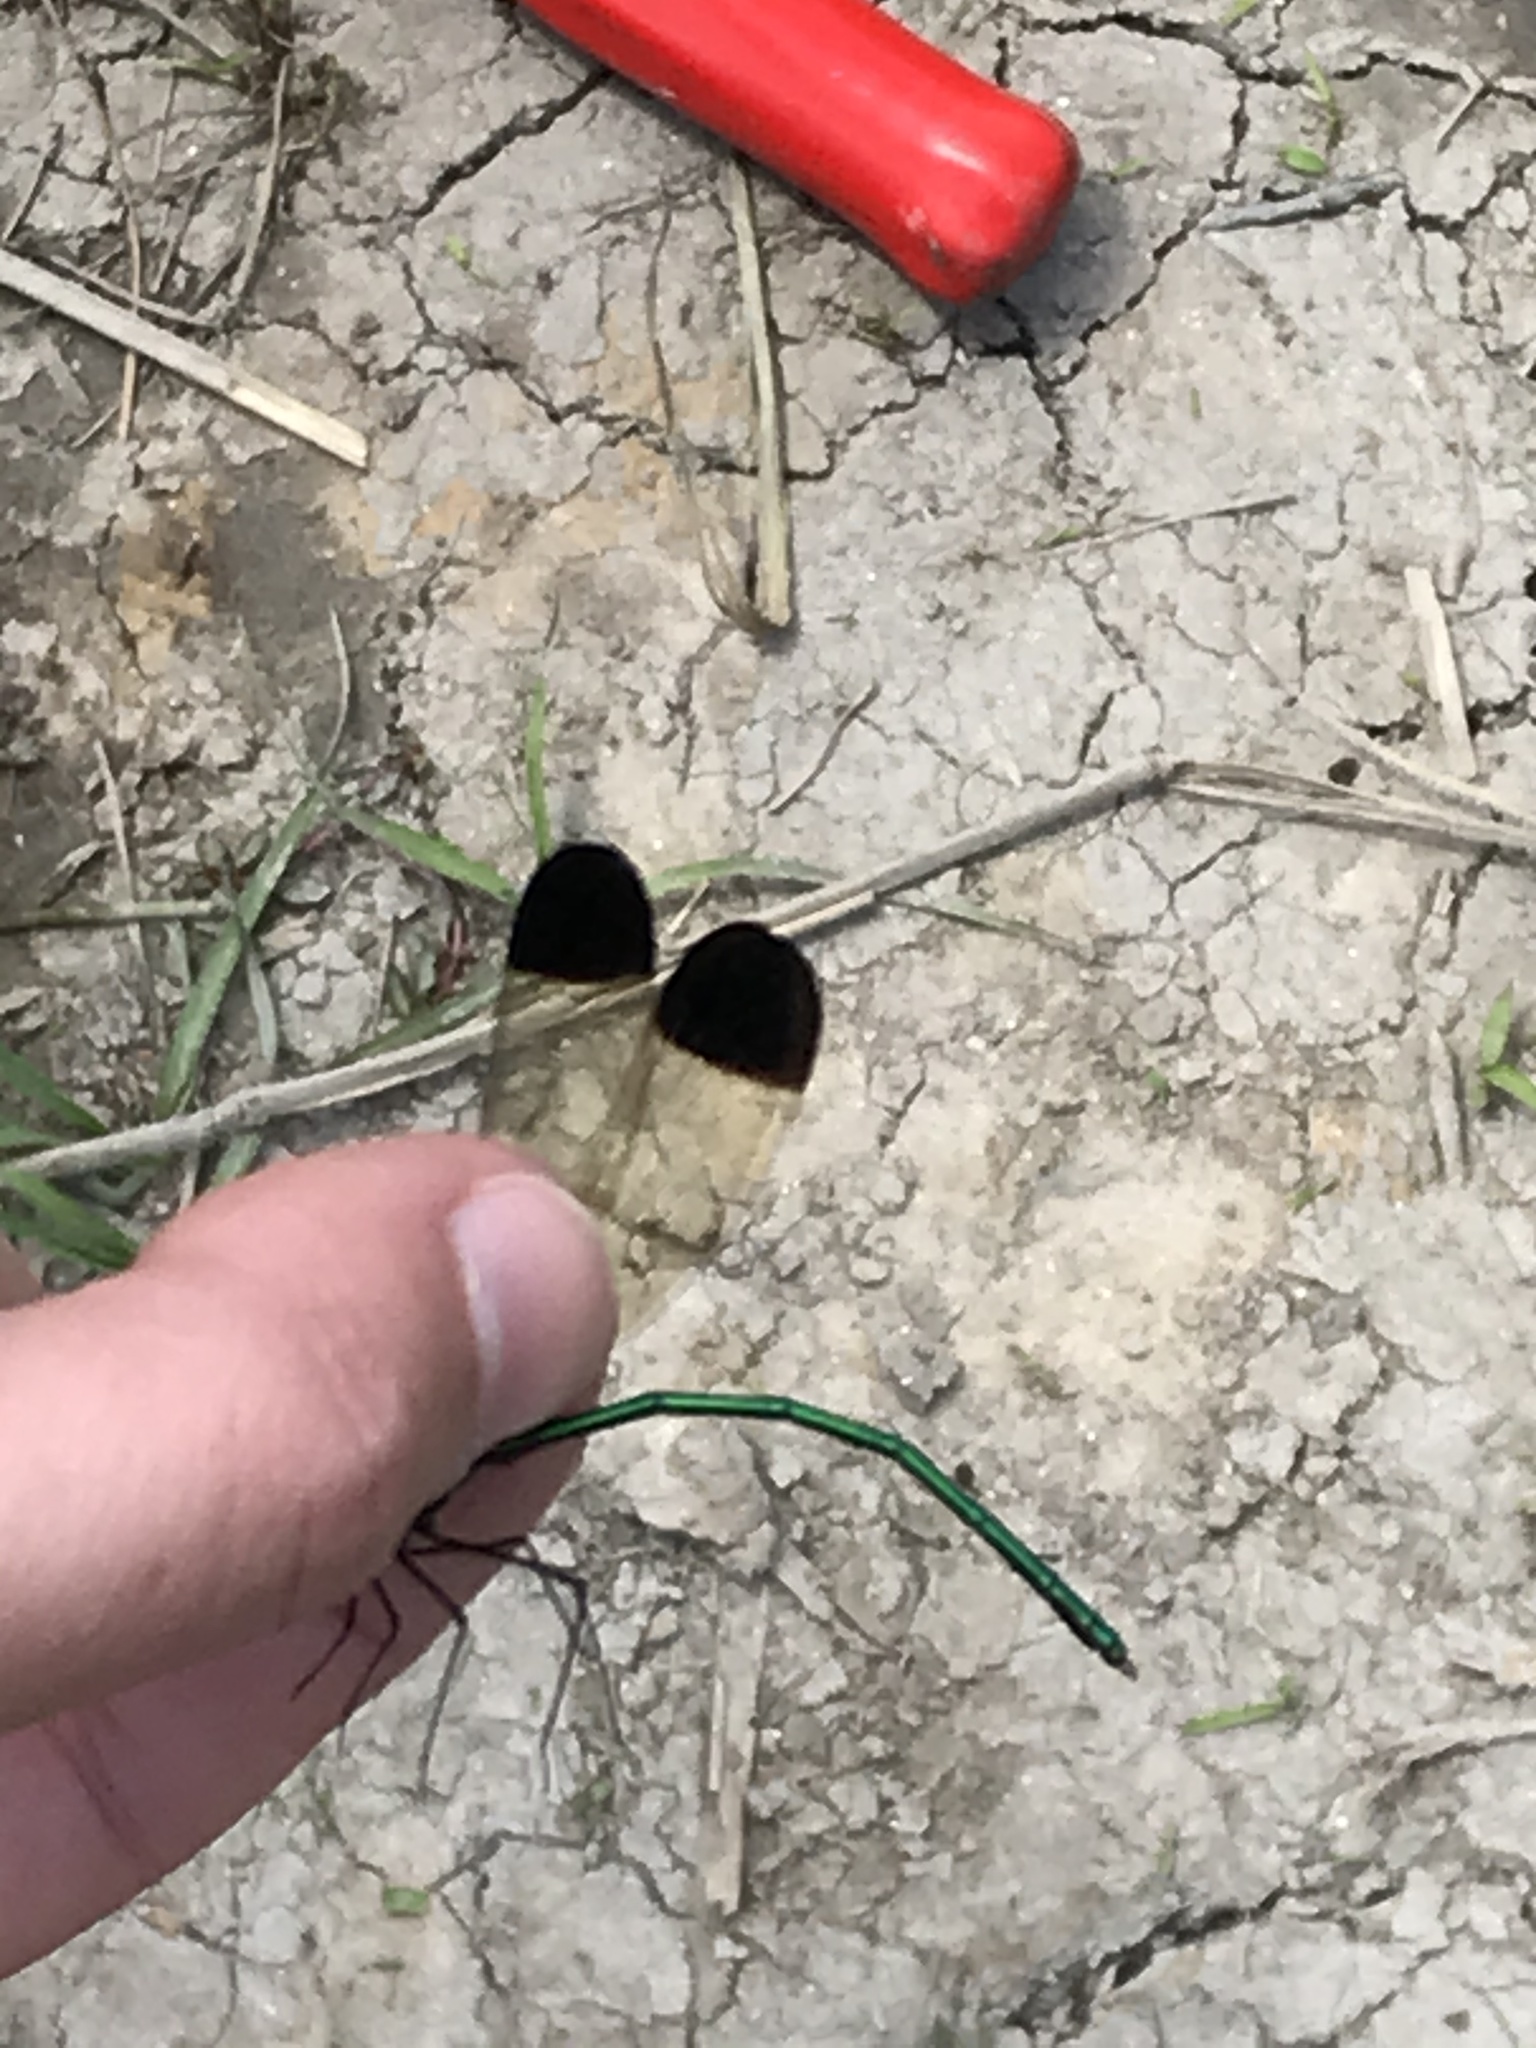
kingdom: Animalia
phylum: Arthropoda
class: Insecta
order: Odonata
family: Calopterygidae
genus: Calopteryx
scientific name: Calopteryx dimidiata
